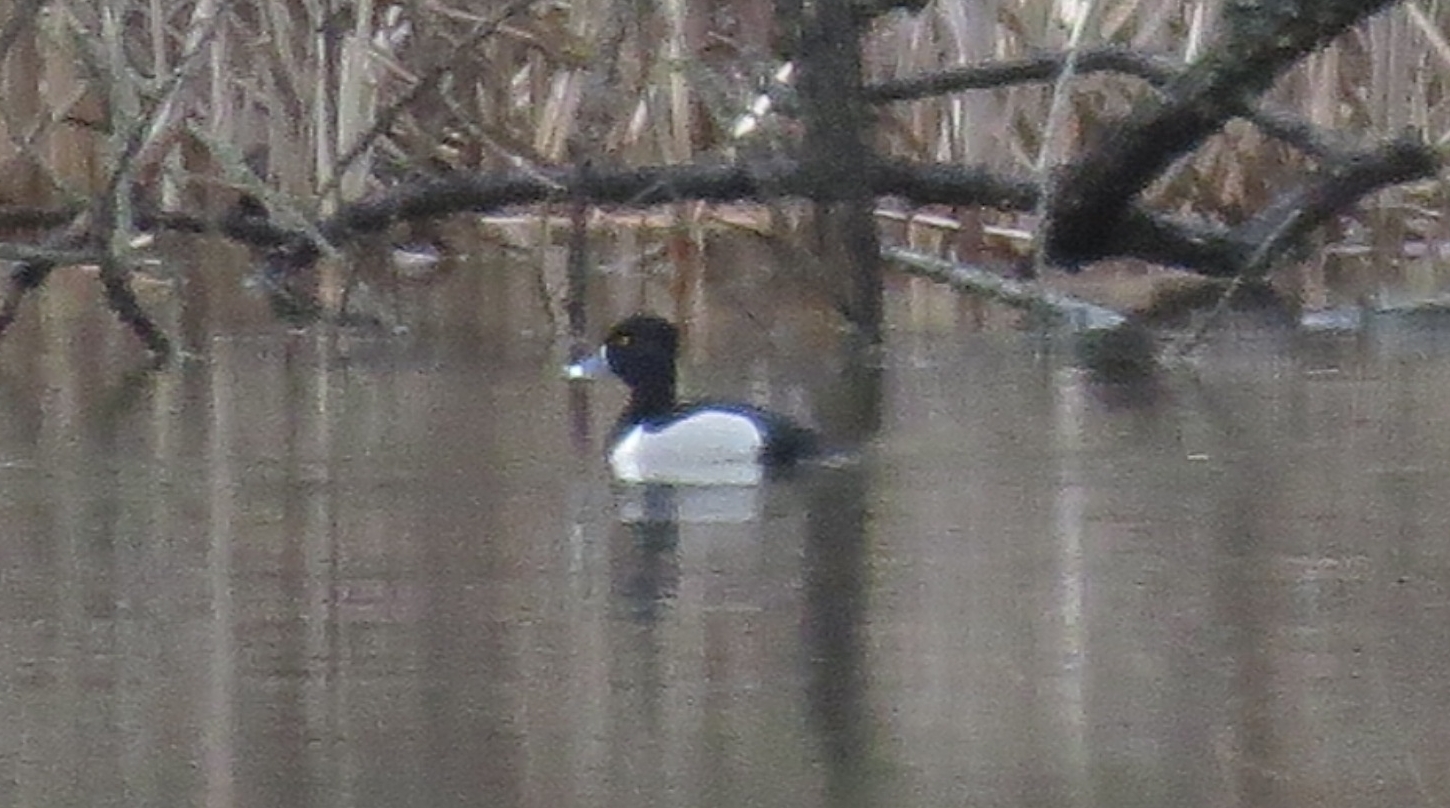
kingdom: Animalia
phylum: Chordata
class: Aves
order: Anseriformes
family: Anatidae
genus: Aythya
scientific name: Aythya collaris
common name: Ring-necked duck
